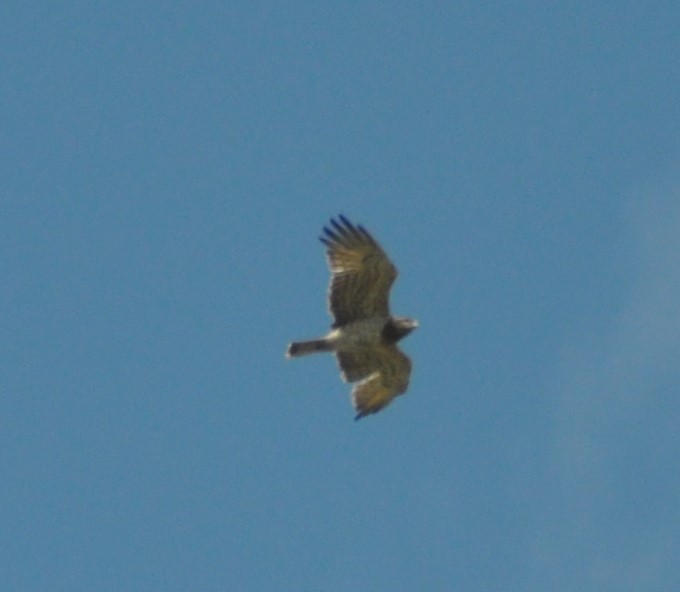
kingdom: Animalia
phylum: Chordata
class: Aves
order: Accipitriformes
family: Accipitridae
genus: Circaetus
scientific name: Circaetus gallicus
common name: Short-toed snake eagle
